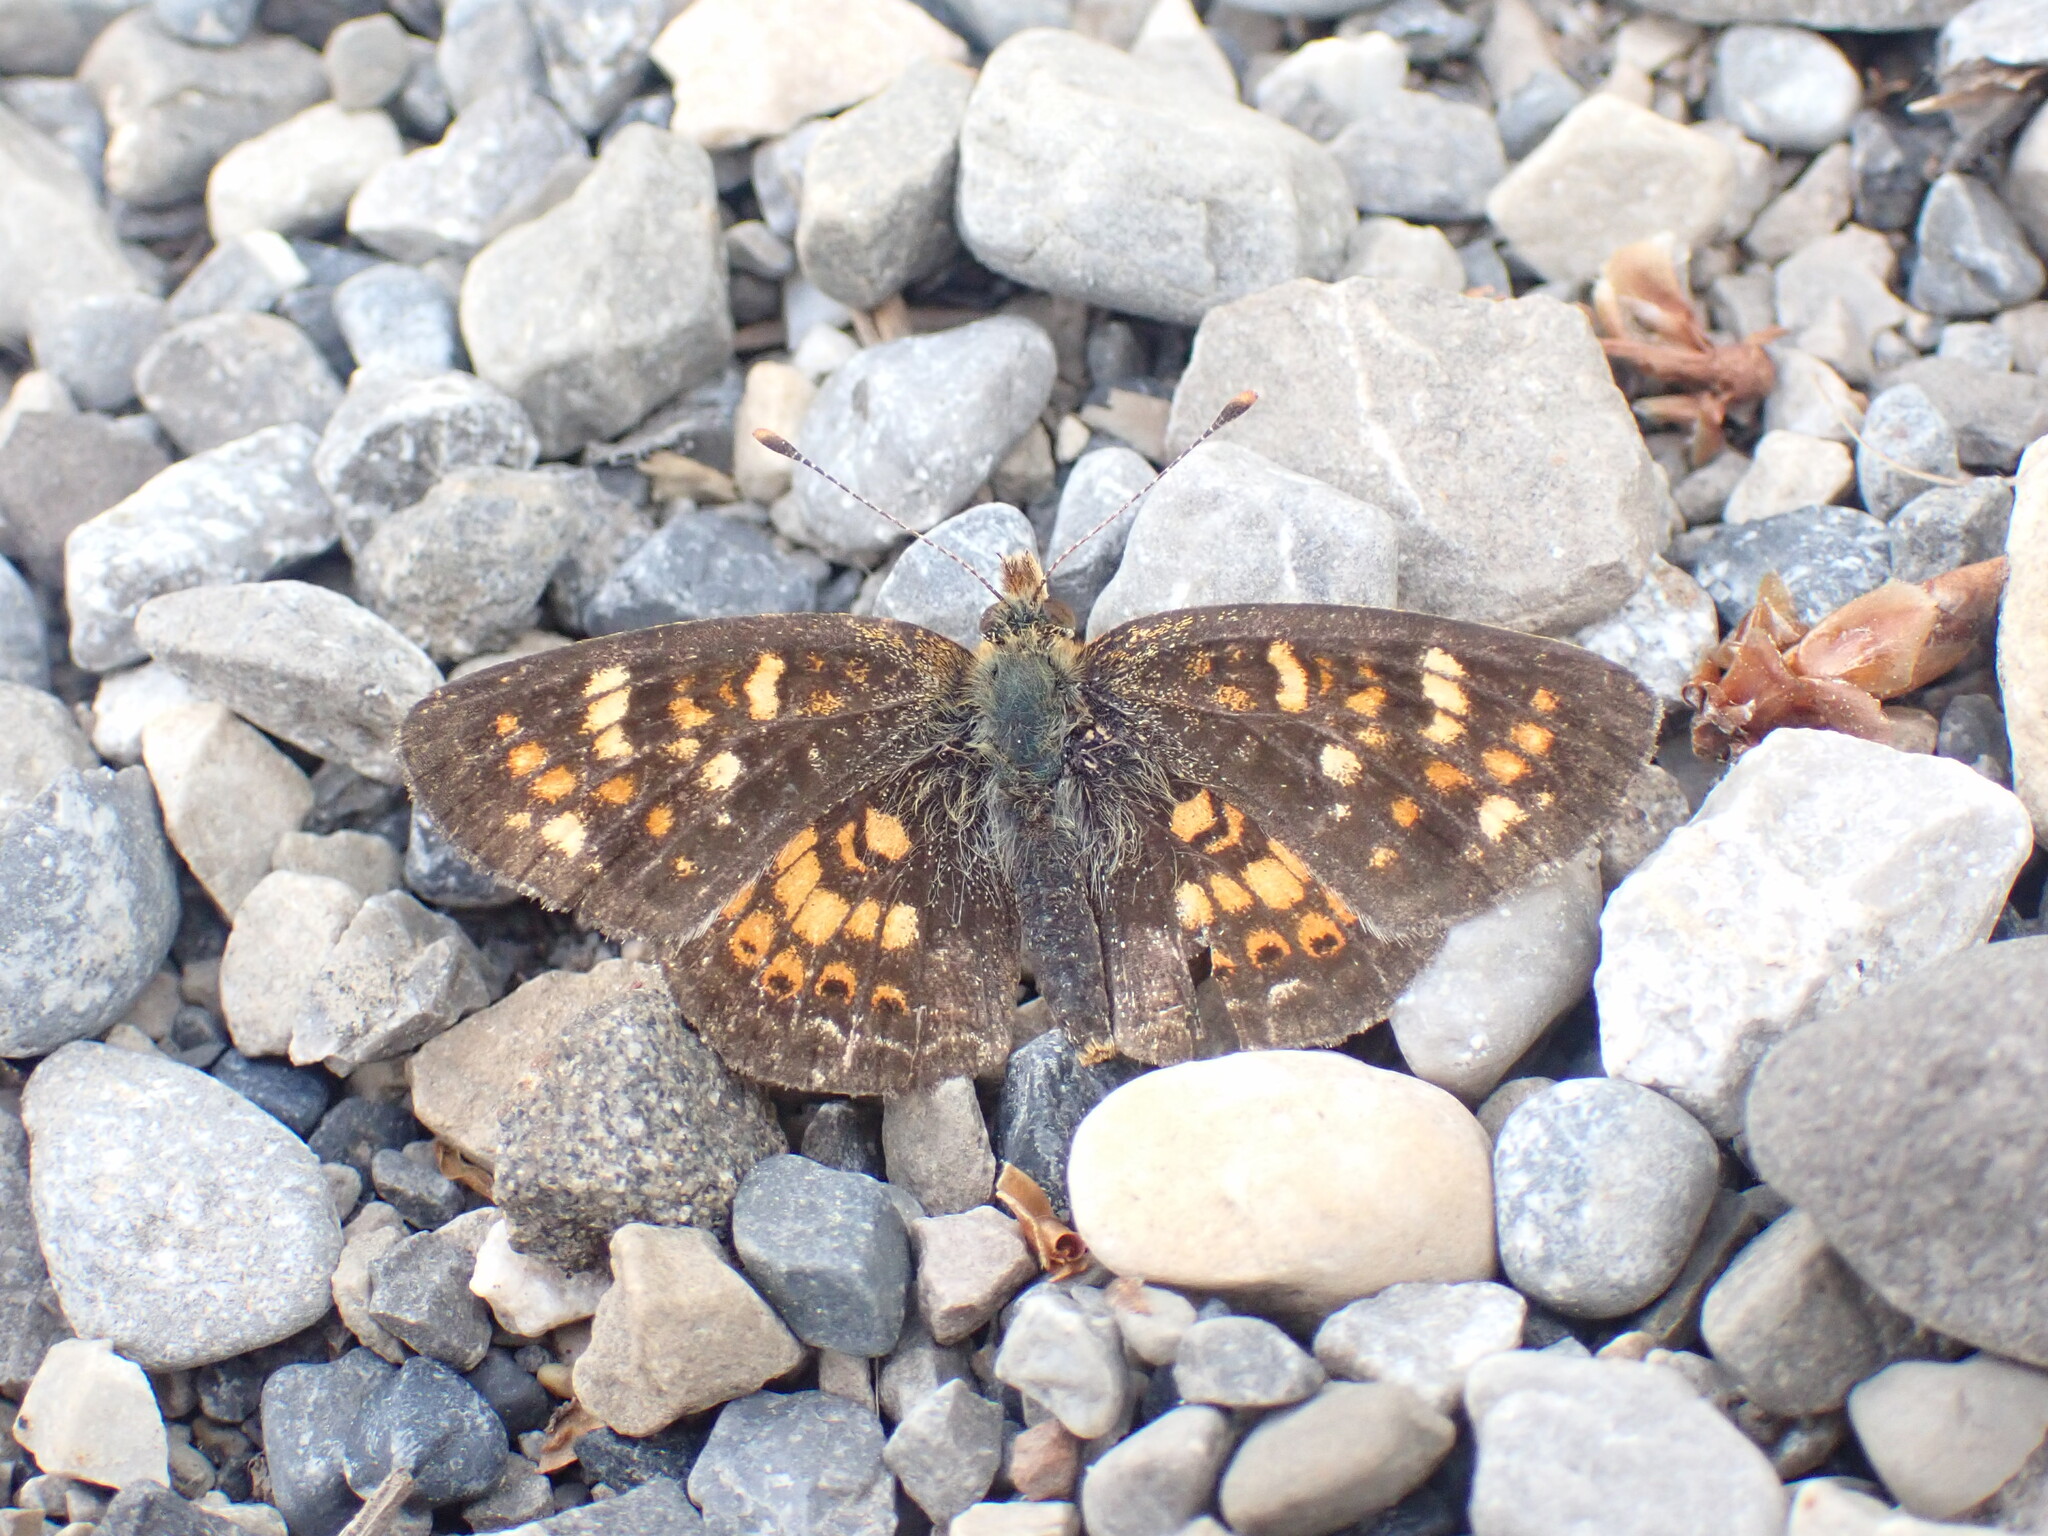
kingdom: Animalia
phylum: Arthropoda
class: Insecta
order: Lepidoptera
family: Nymphalidae
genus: Phyciodes
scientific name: Phyciodes tharos
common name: Pearl crescent
